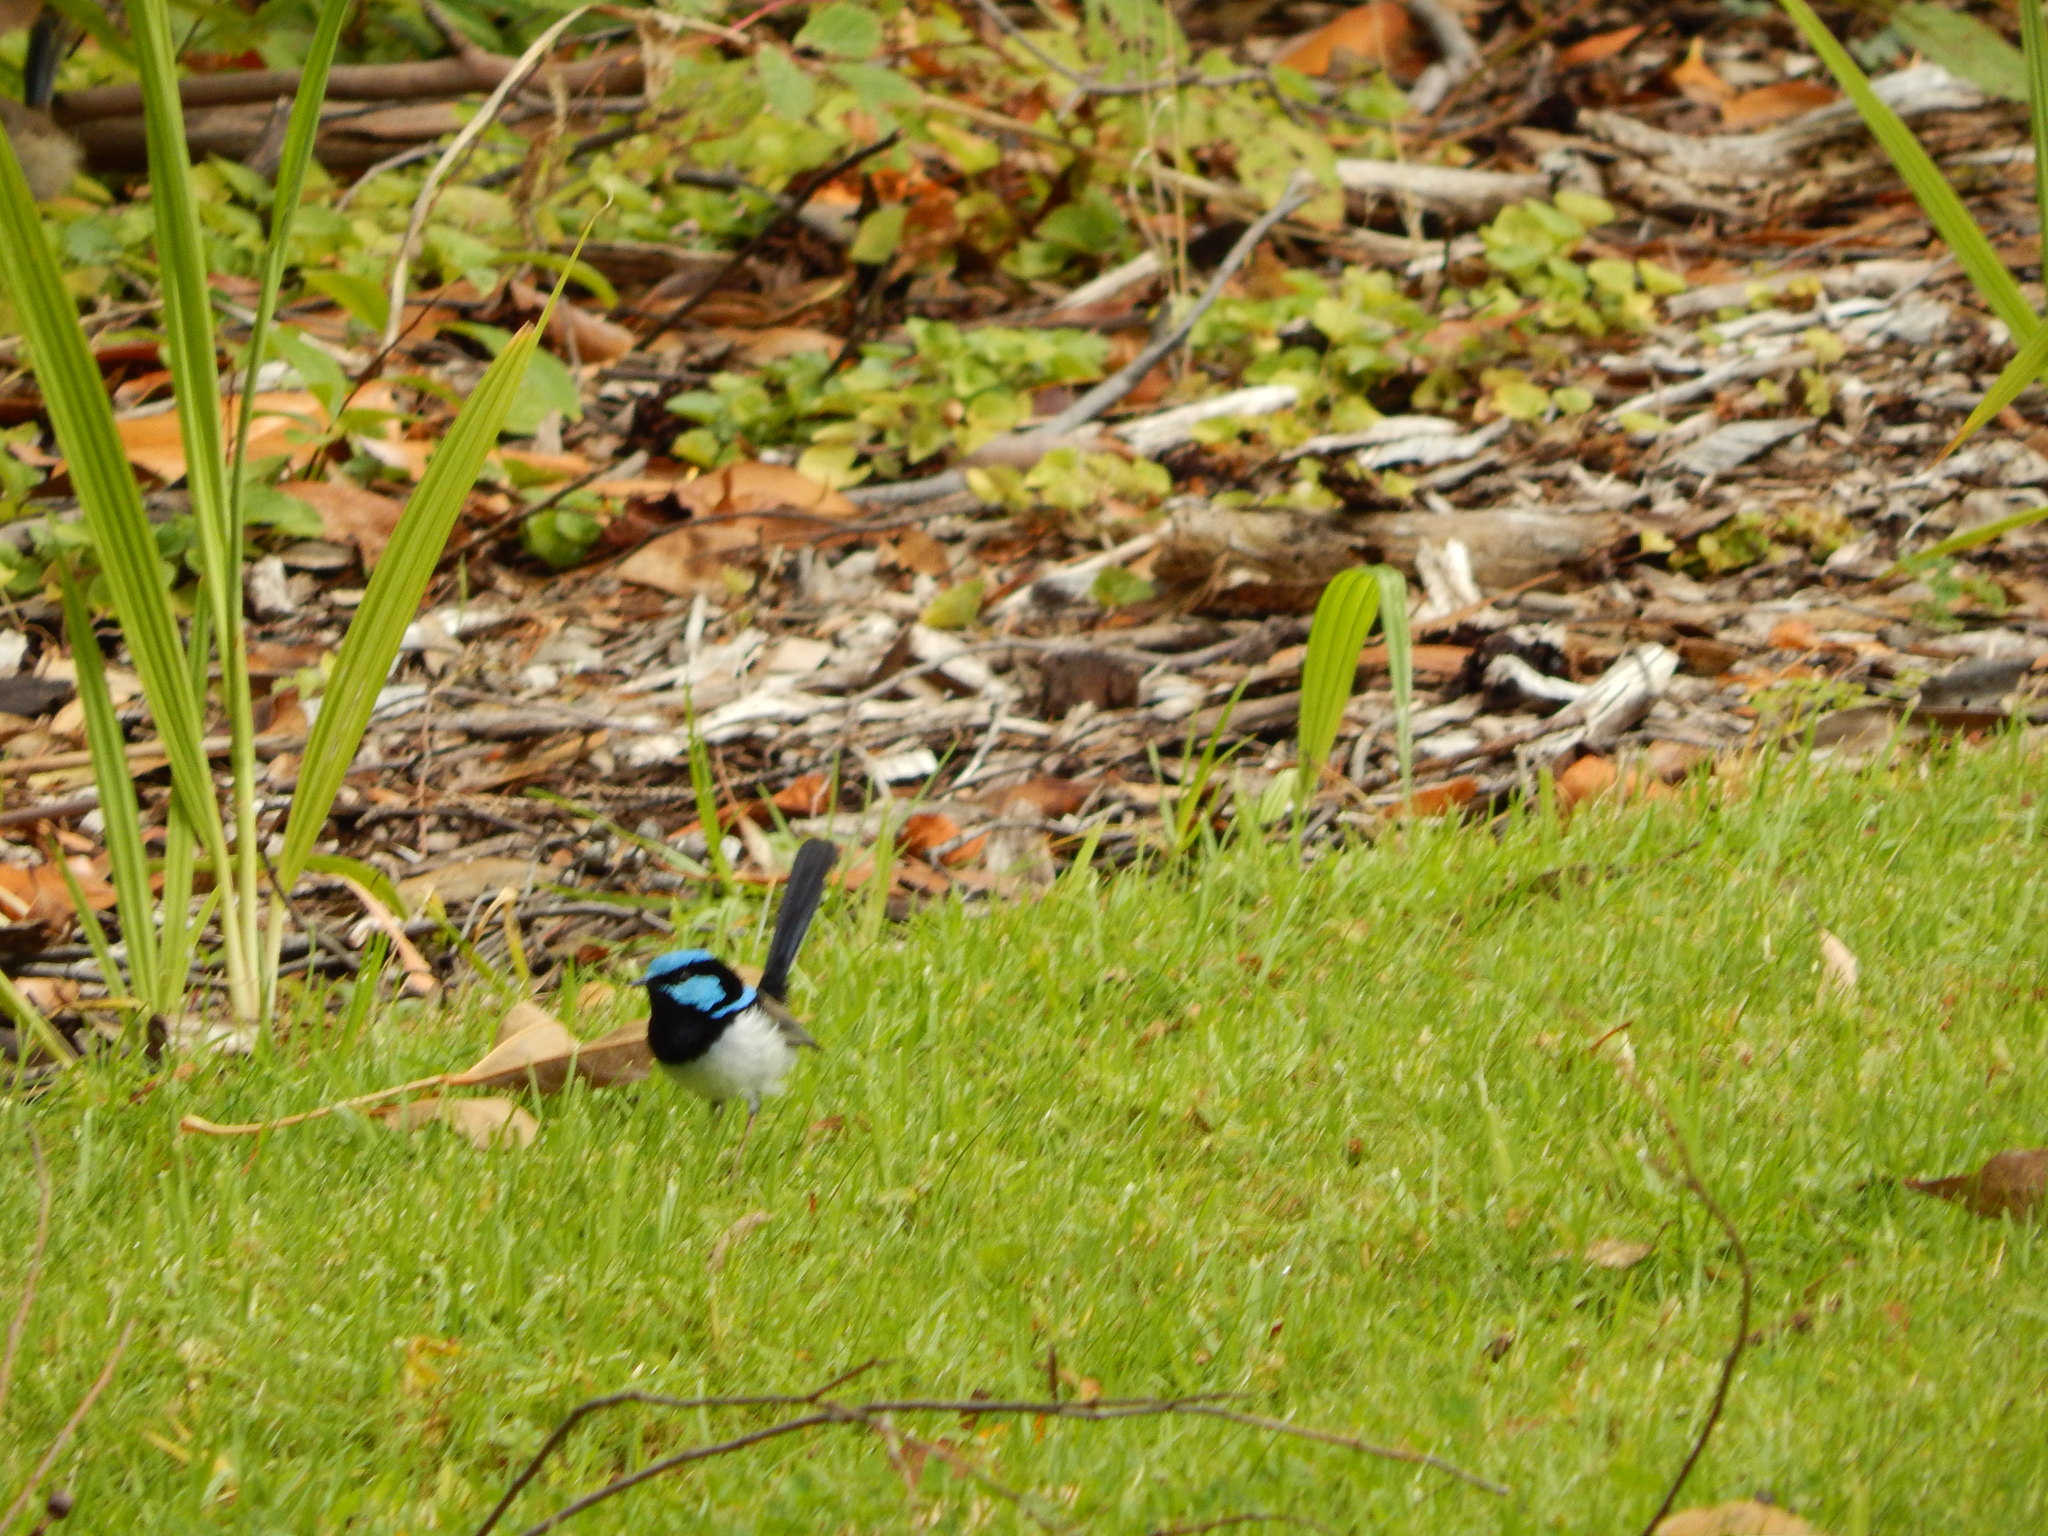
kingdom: Animalia
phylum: Chordata
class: Aves
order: Passeriformes
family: Maluridae
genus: Malurus
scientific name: Malurus cyaneus
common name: Superb fairywren
